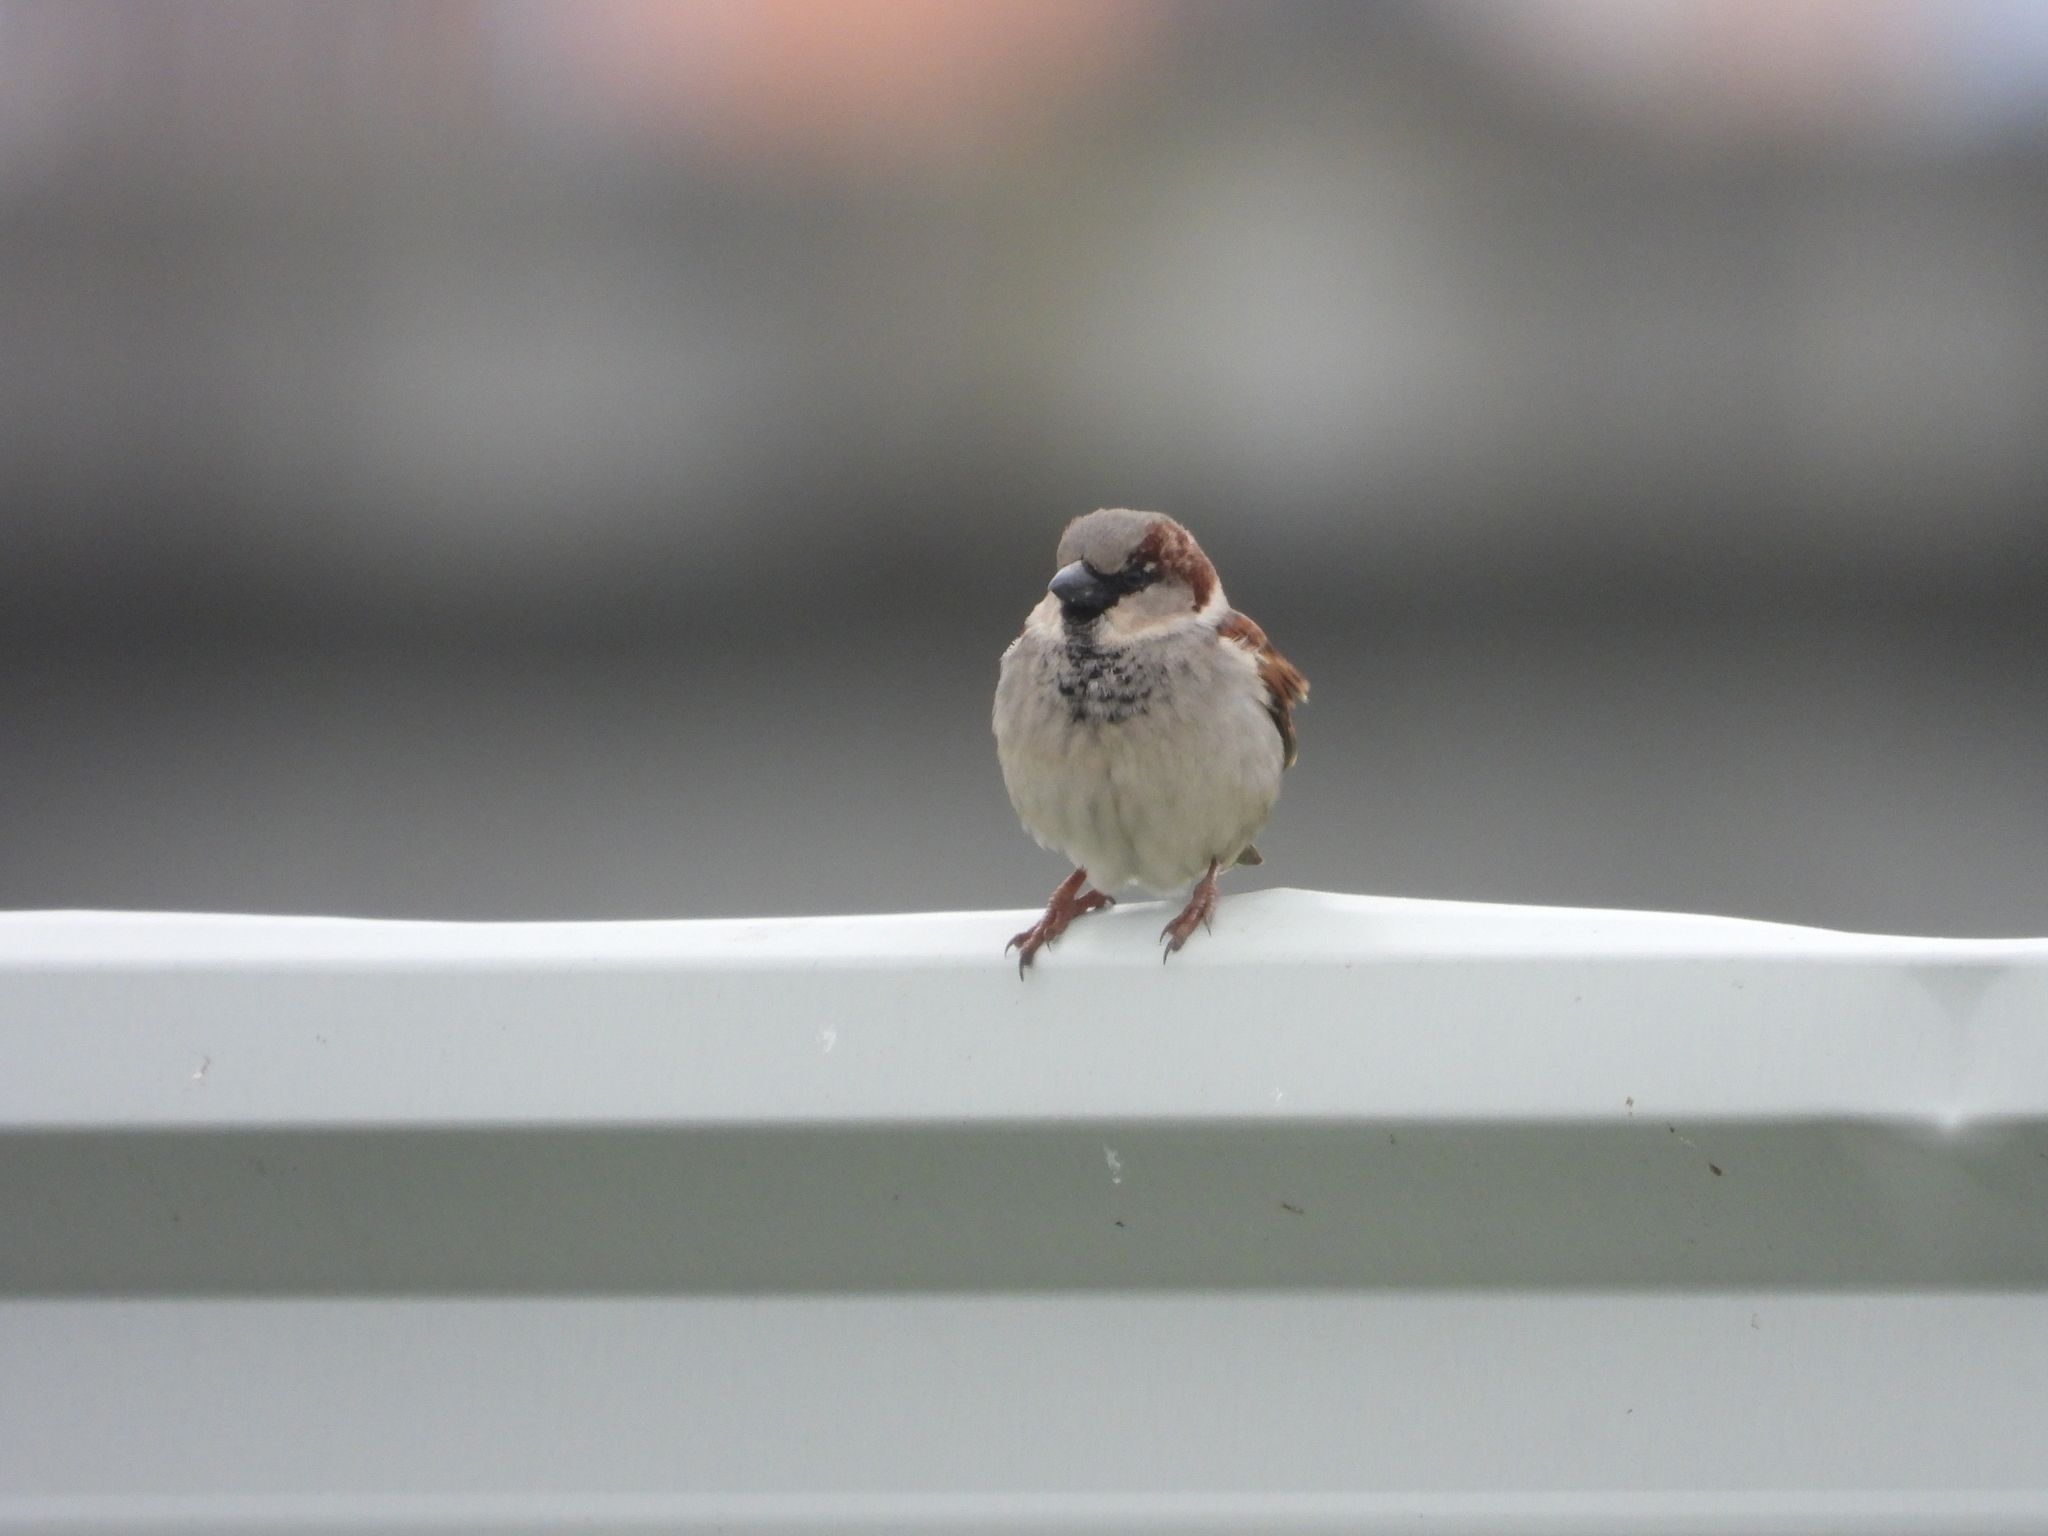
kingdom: Animalia
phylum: Chordata
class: Aves
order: Passeriformes
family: Passeridae
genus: Passer
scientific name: Passer domesticus
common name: House sparrow
